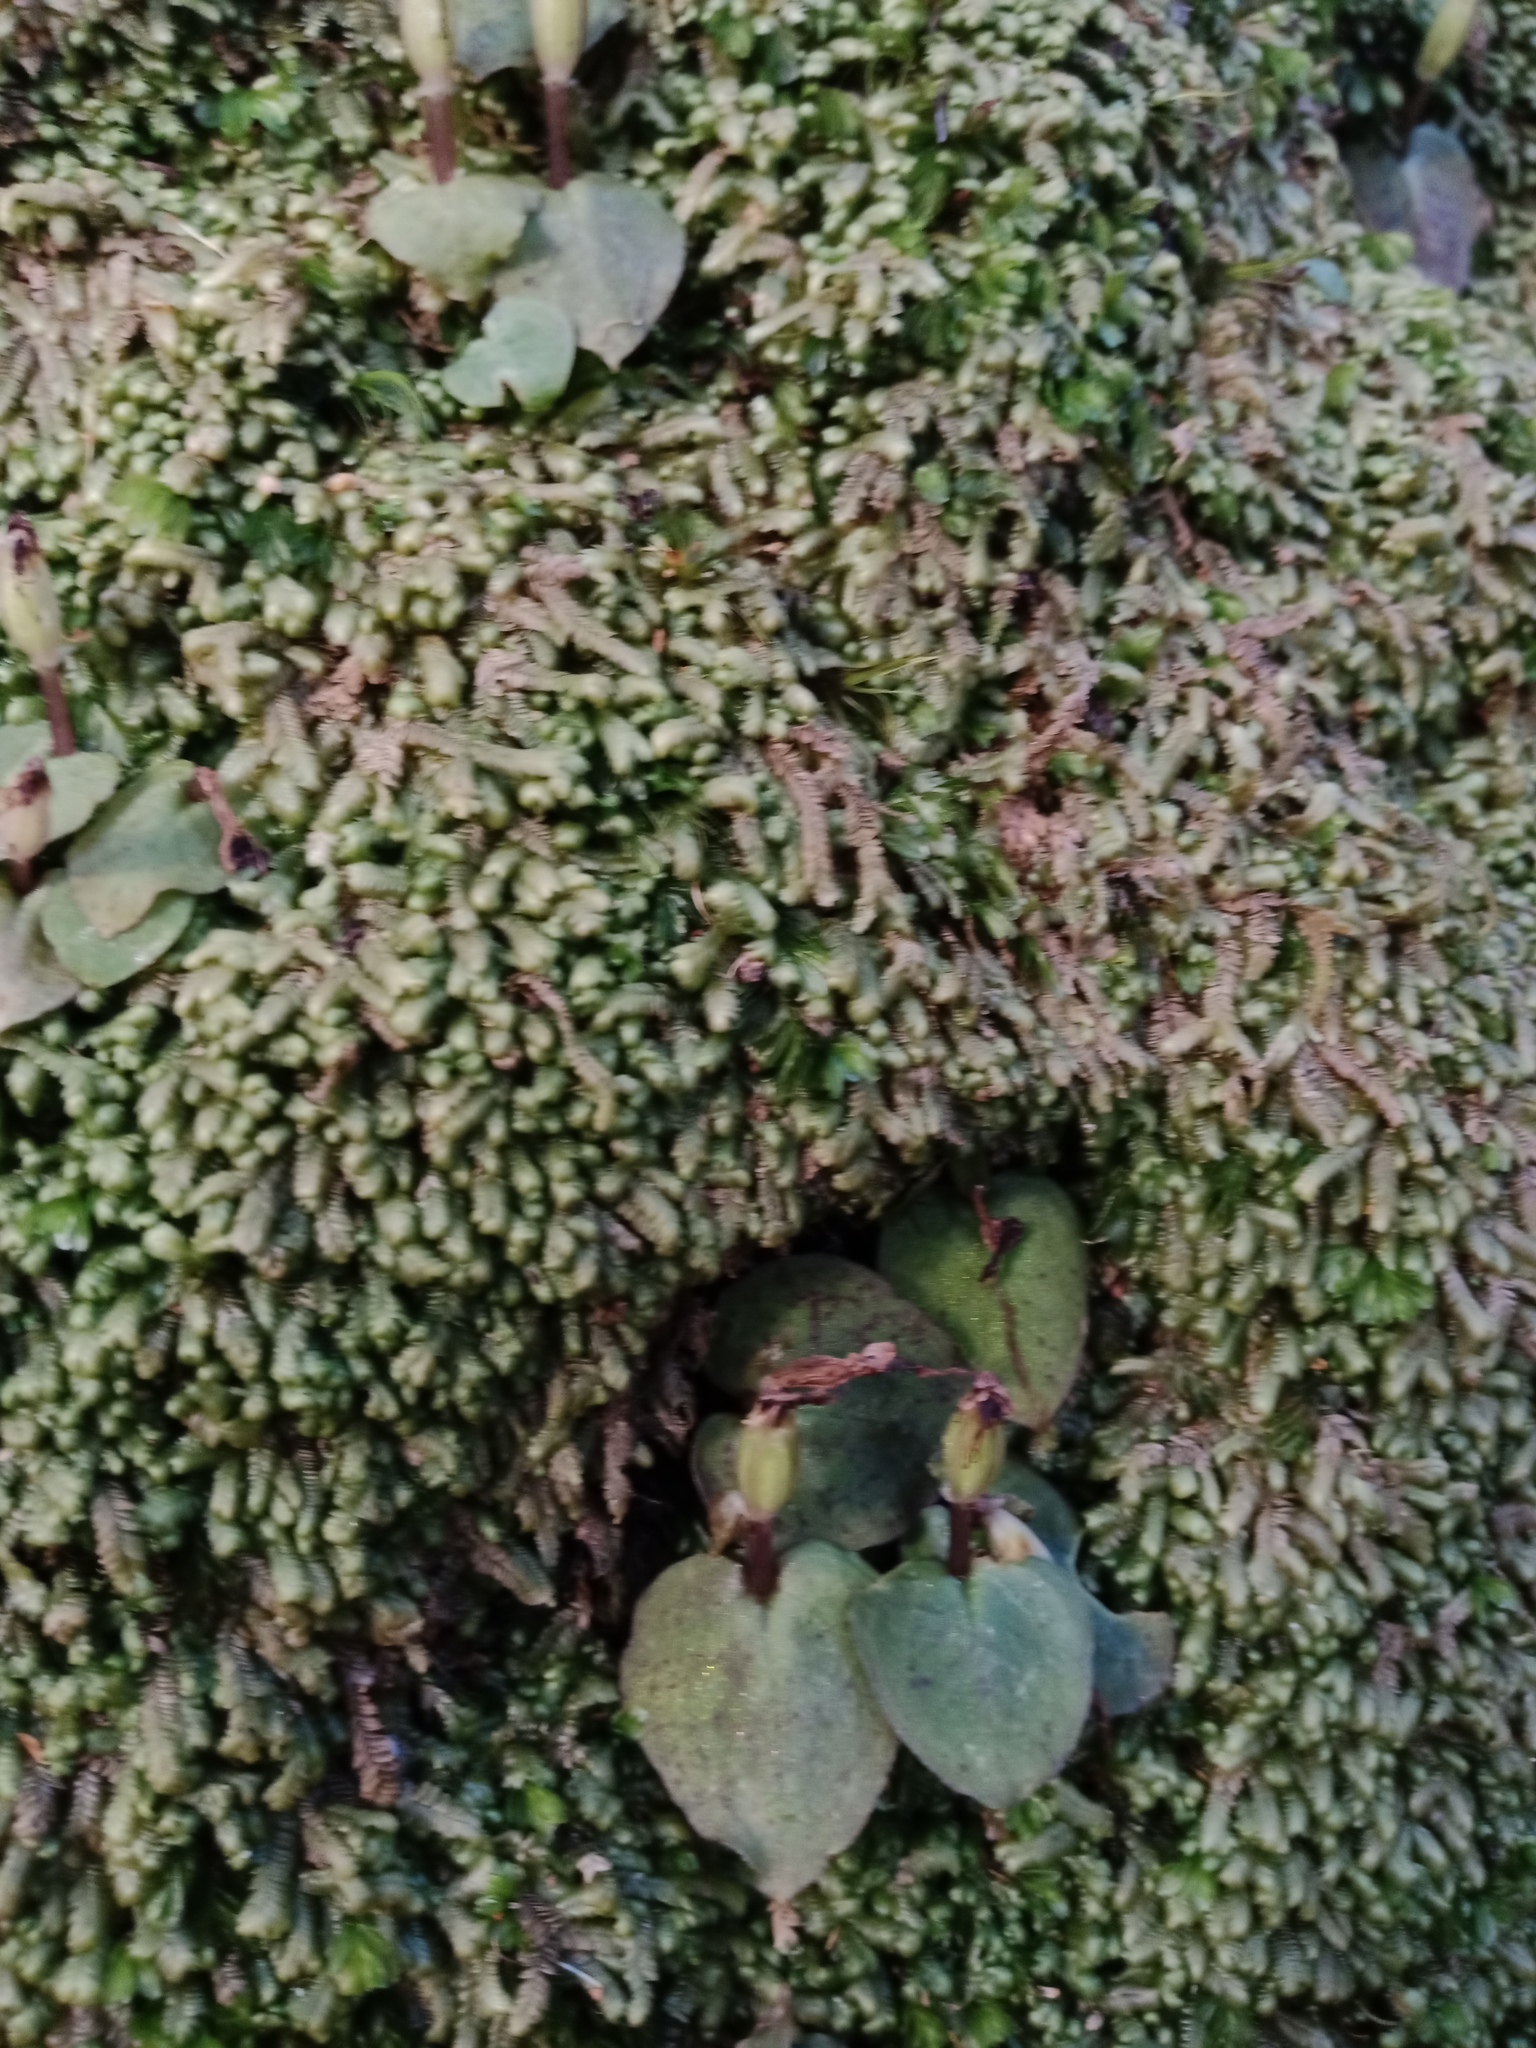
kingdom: Plantae
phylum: Tracheophyta
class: Liliopsida
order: Asparagales
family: Orchidaceae
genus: Corybas
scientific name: Corybas oblongus
